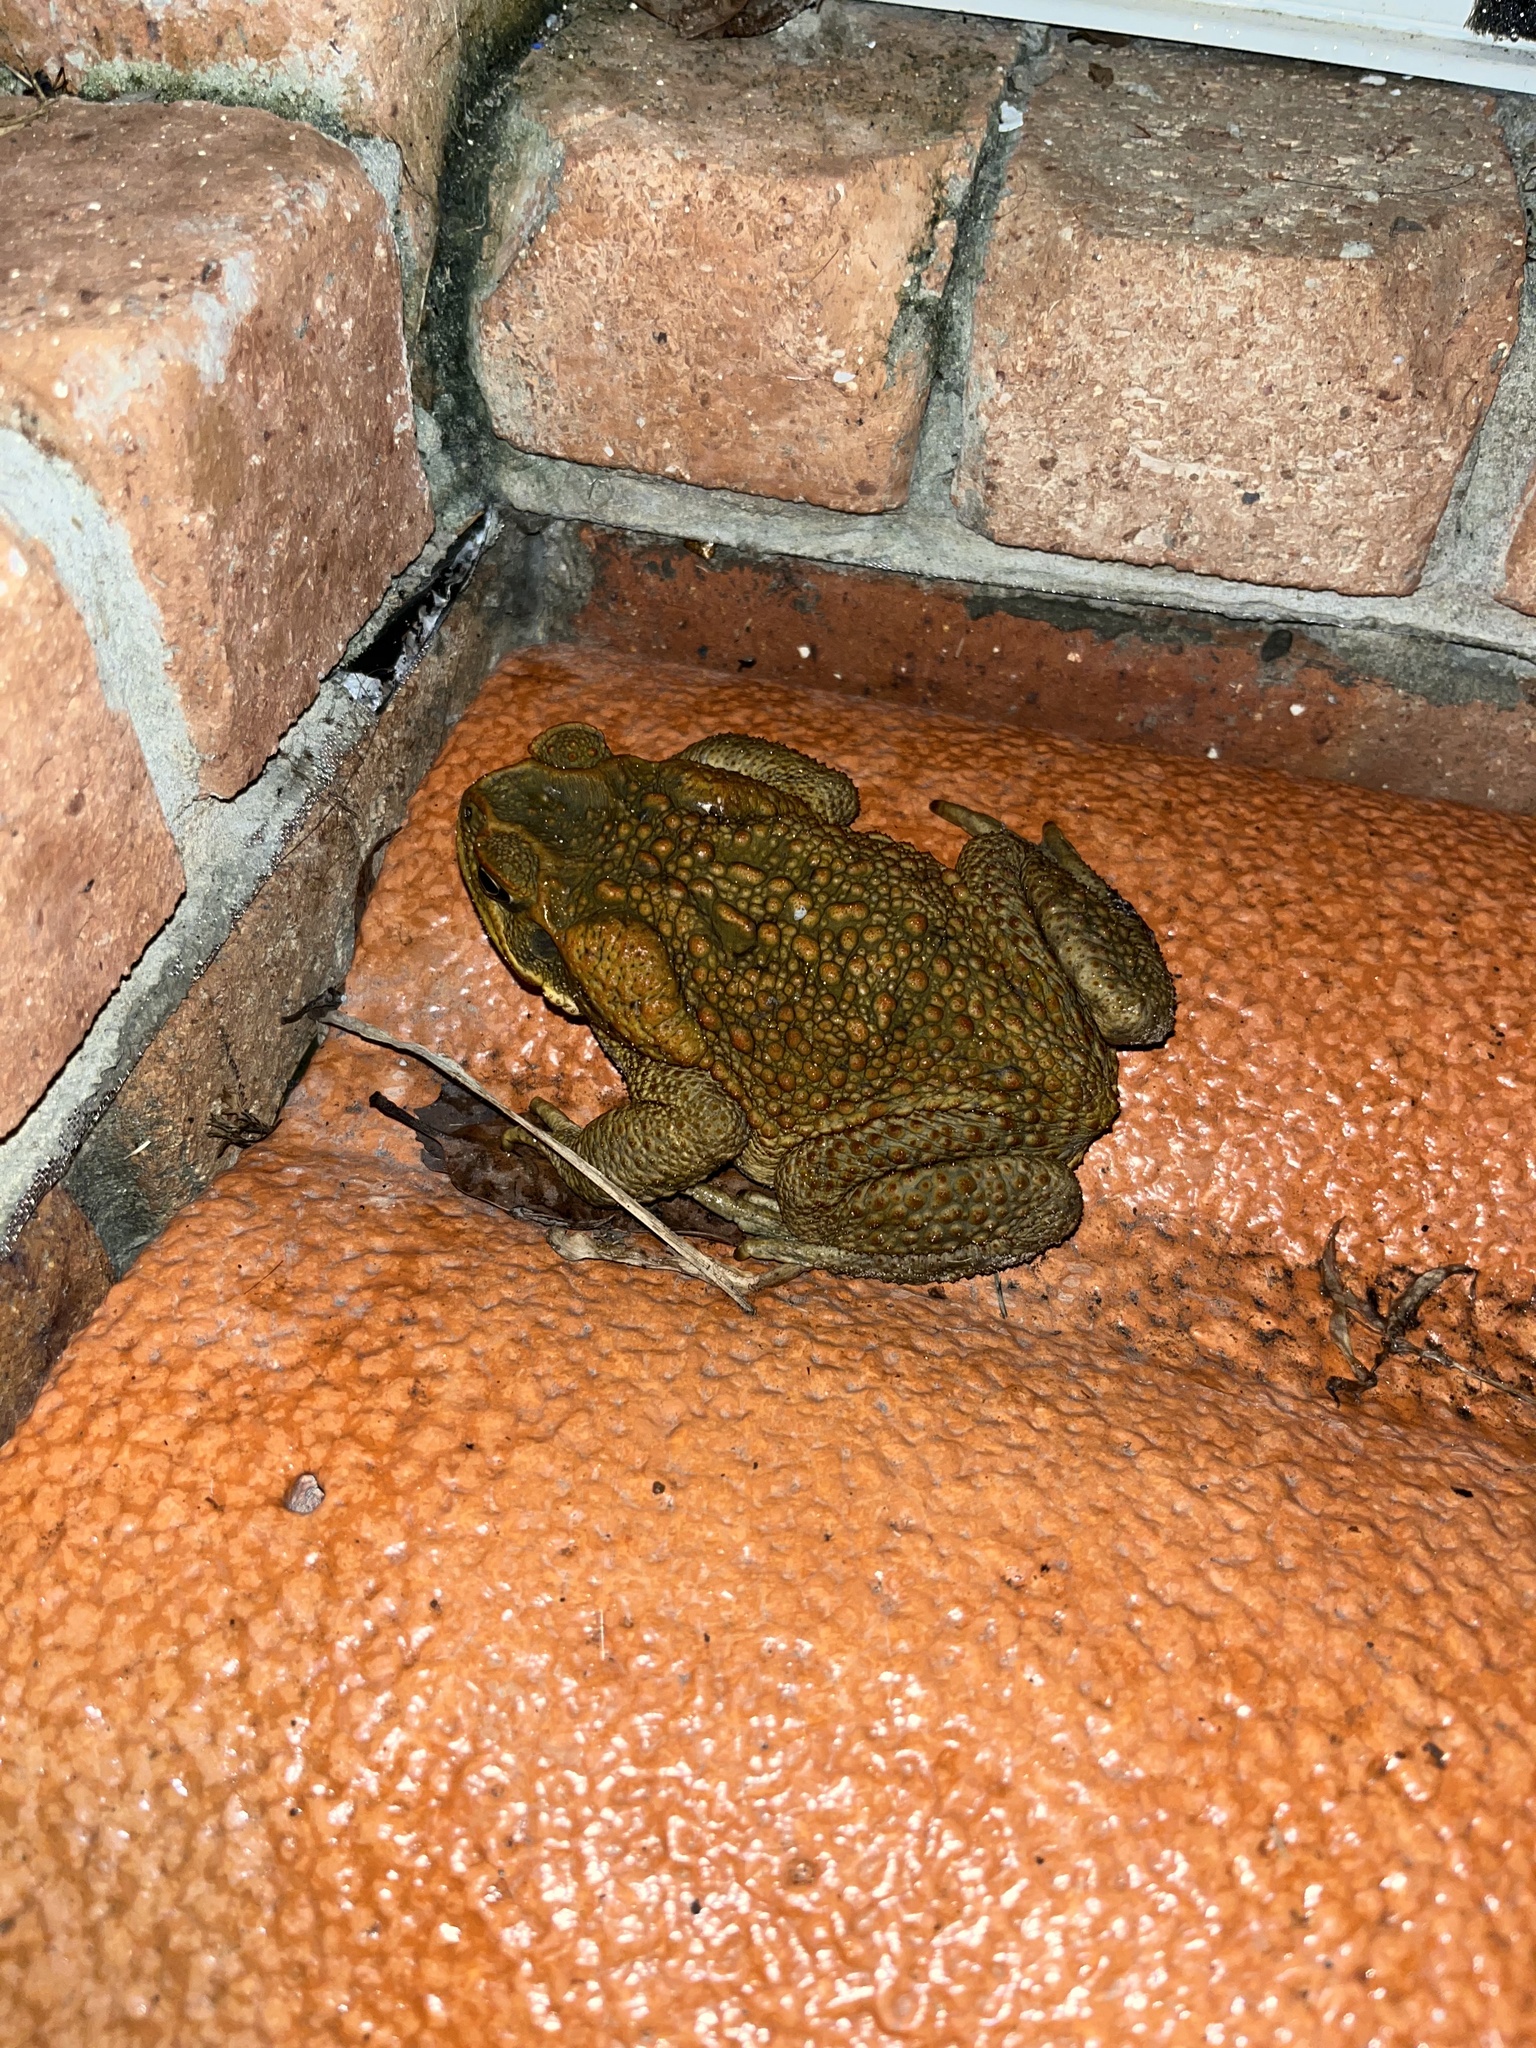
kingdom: Animalia
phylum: Chordata
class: Amphibia
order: Anura
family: Bufonidae
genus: Rhinella
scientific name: Rhinella marina
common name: Cane toad
